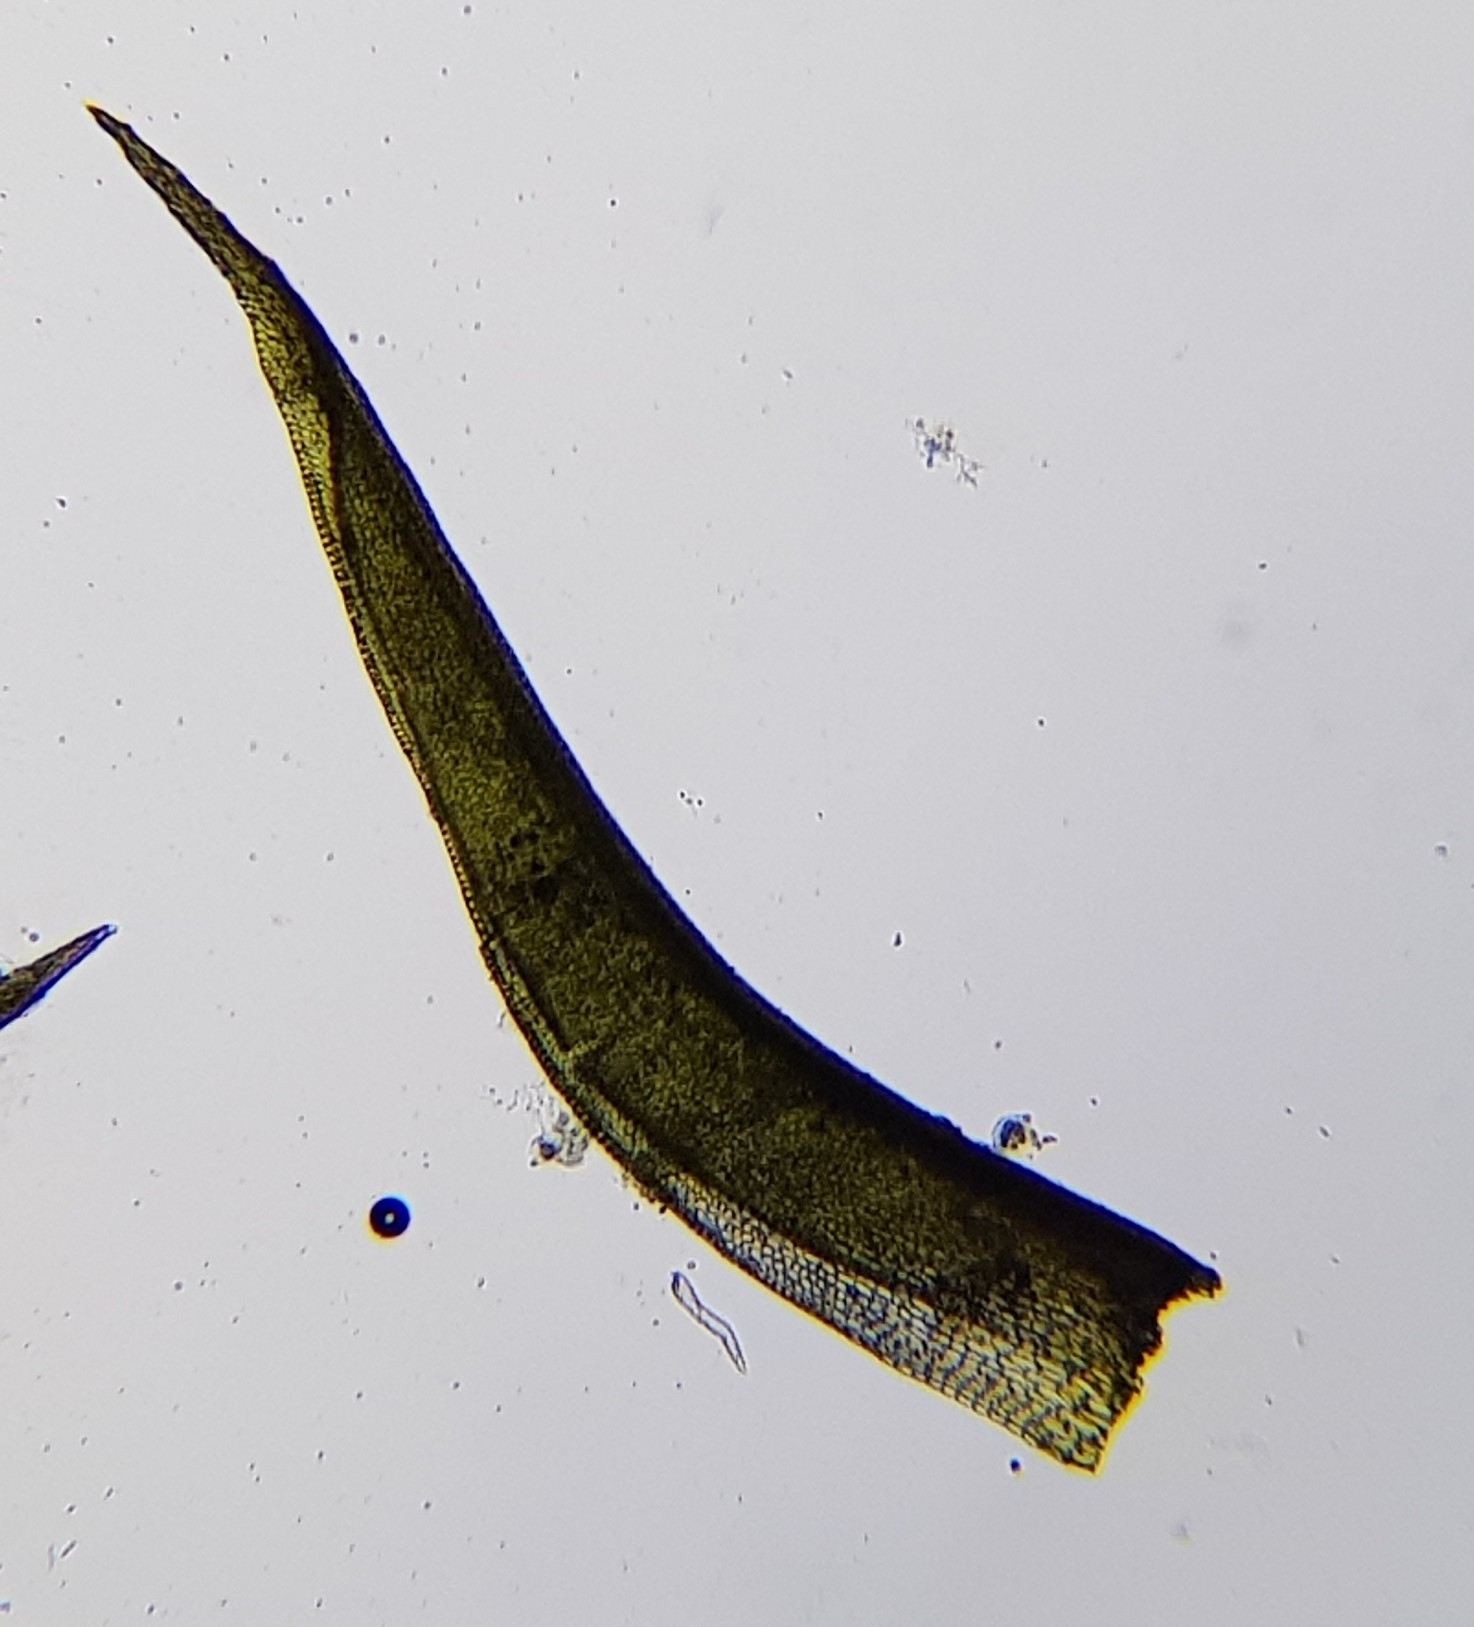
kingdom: Plantae
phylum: Bryophyta
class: Bryopsida
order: Dicranales
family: Ditrichaceae
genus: Ceratodon
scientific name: Ceratodon purpureus
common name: Redshank
